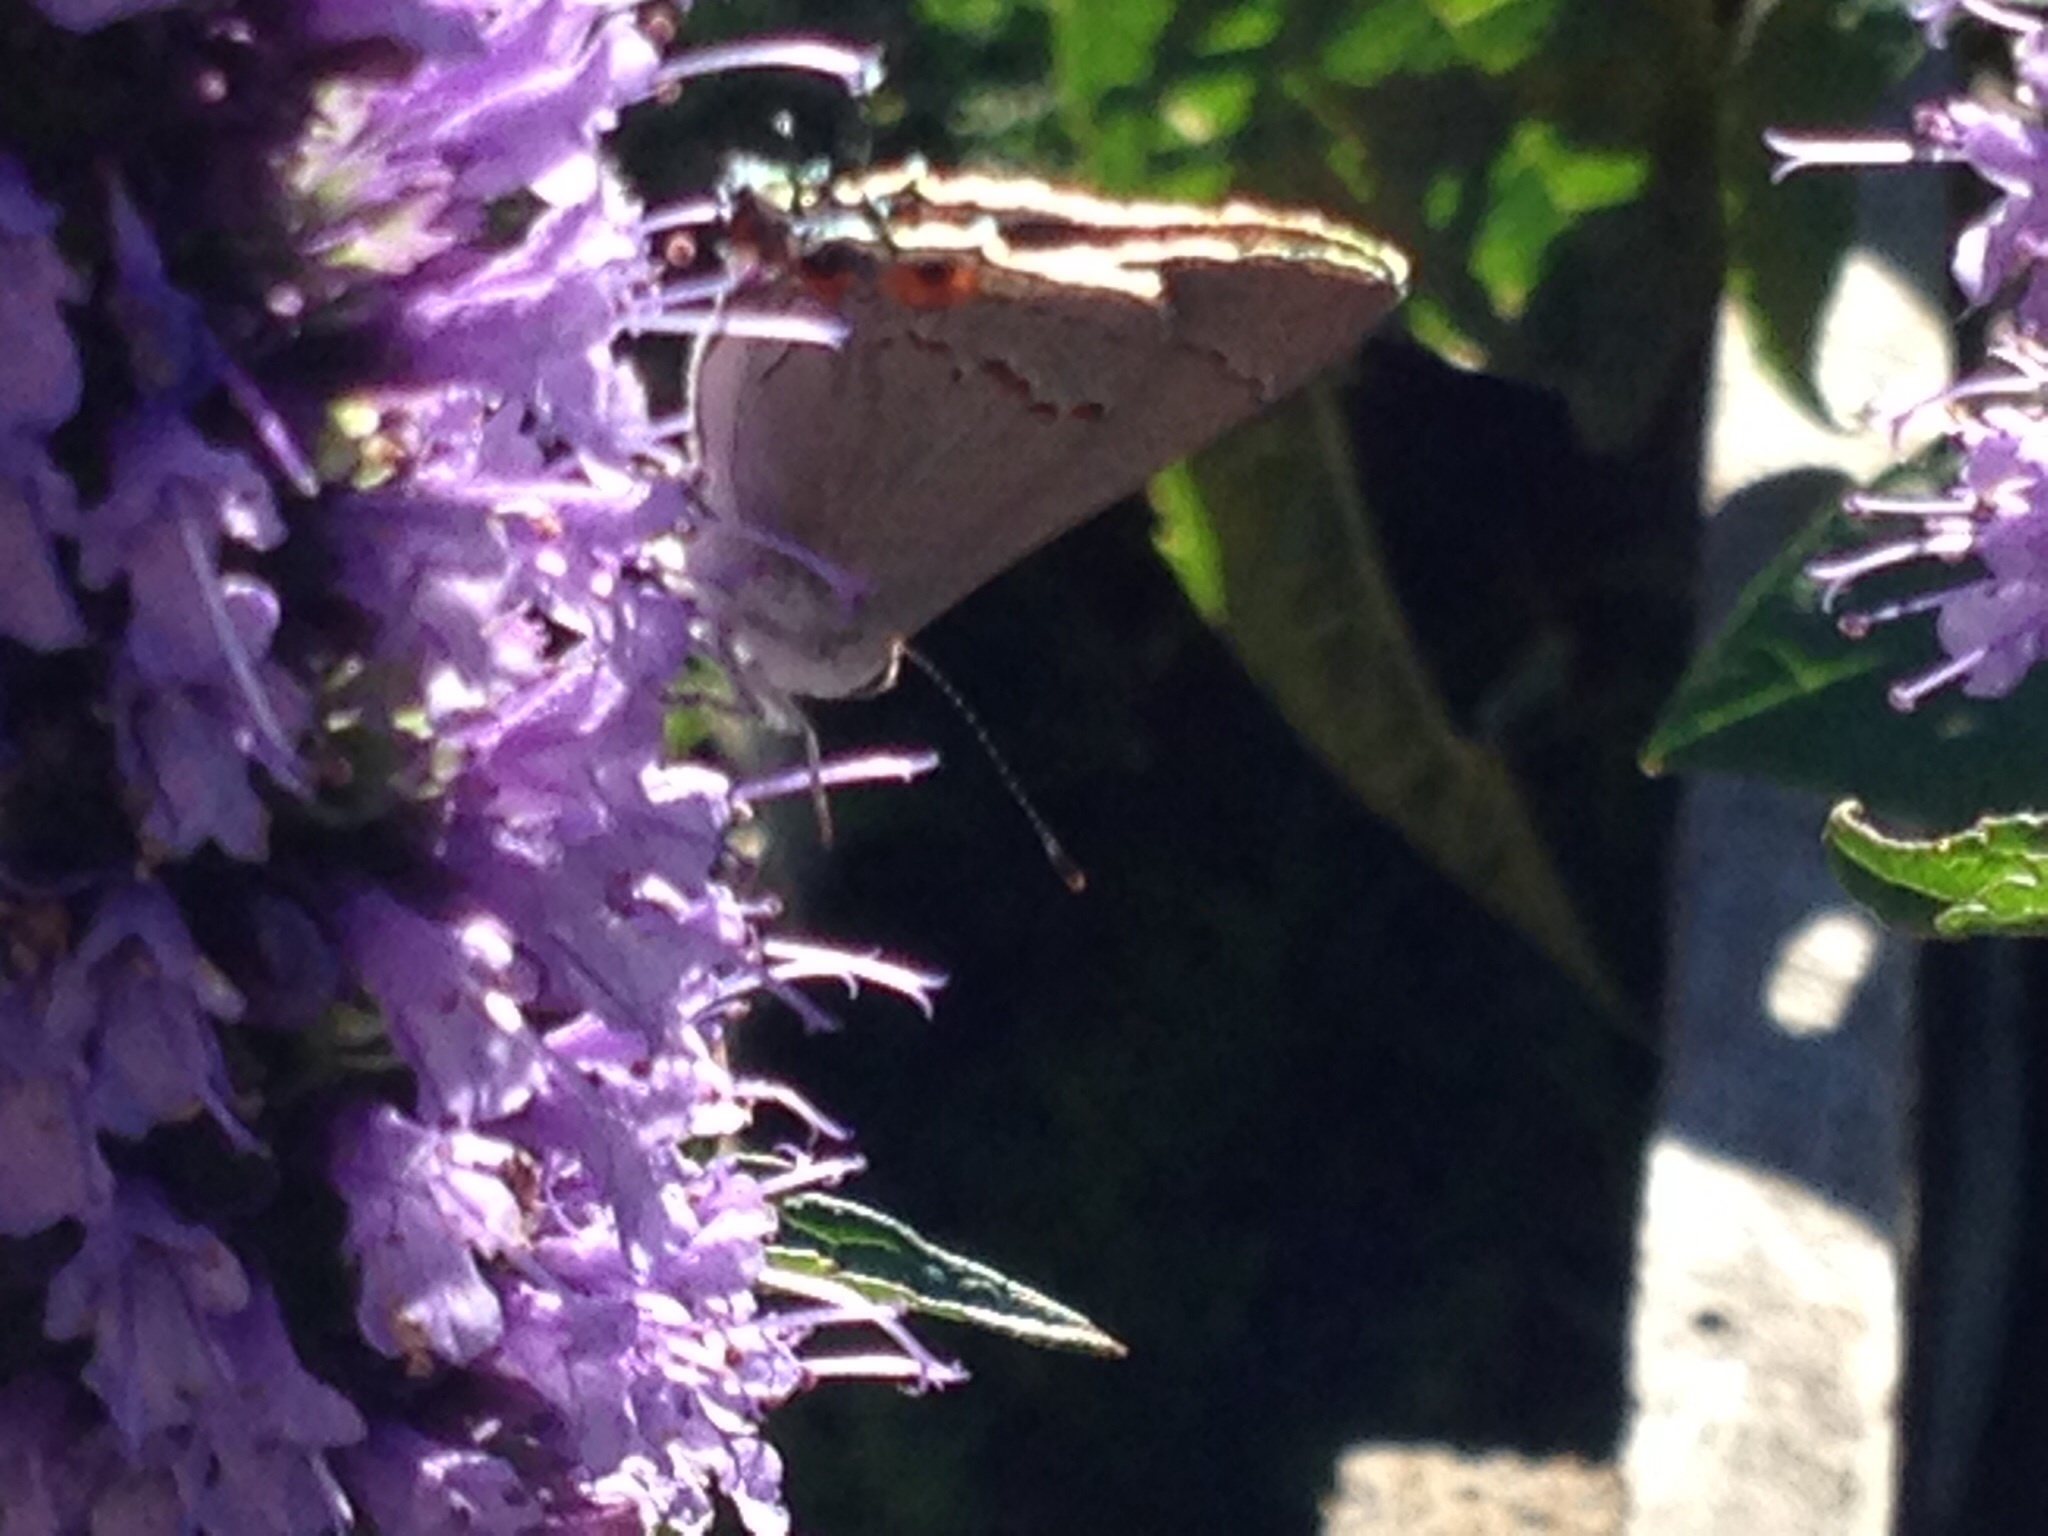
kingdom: Animalia
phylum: Arthropoda
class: Insecta
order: Lepidoptera
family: Lycaenidae
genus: Strymon
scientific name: Strymon melinus
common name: Gray hairstreak
